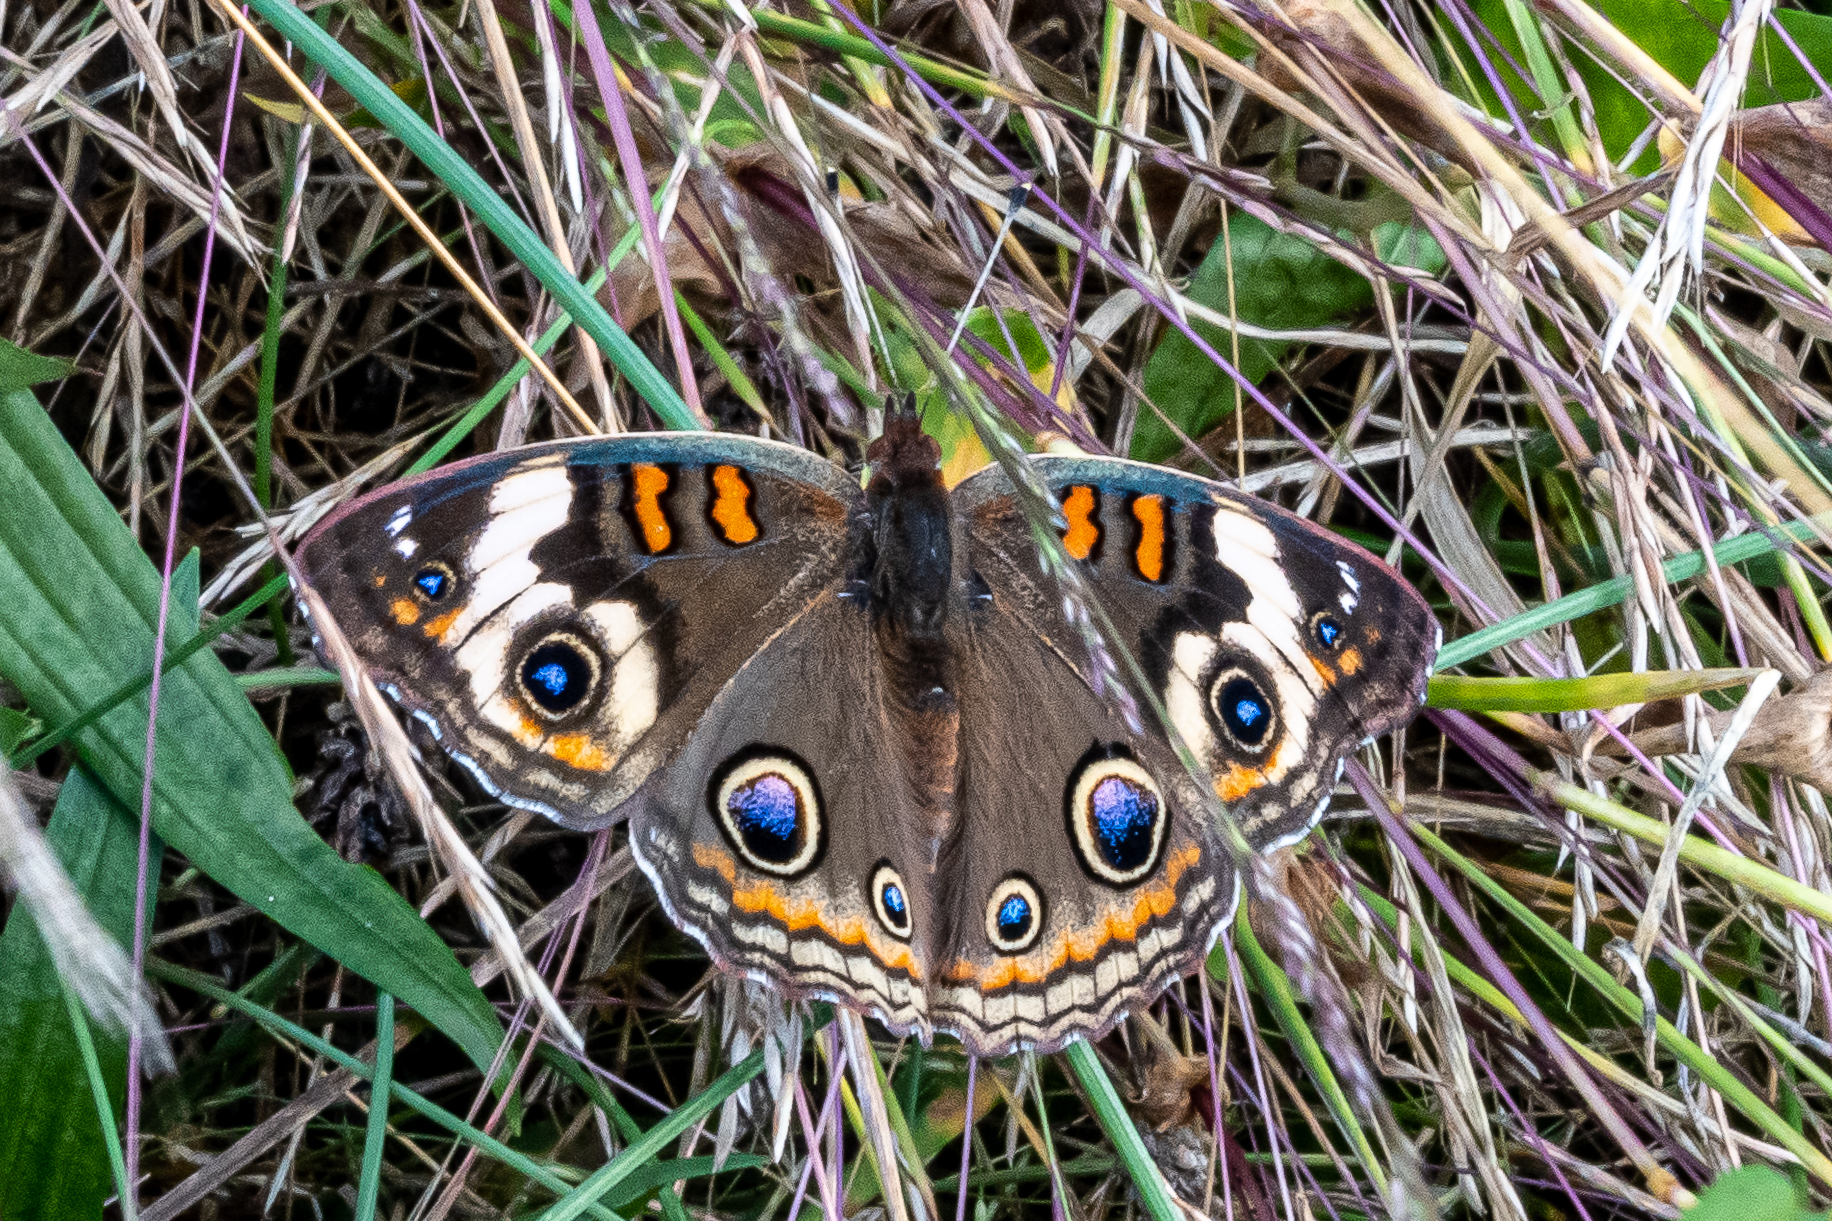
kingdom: Animalia
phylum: Arthropoda
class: Insecta
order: Lepidoptera
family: Nymphalidae
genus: Junonia
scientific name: Junonia coenia
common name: Common buckeye
